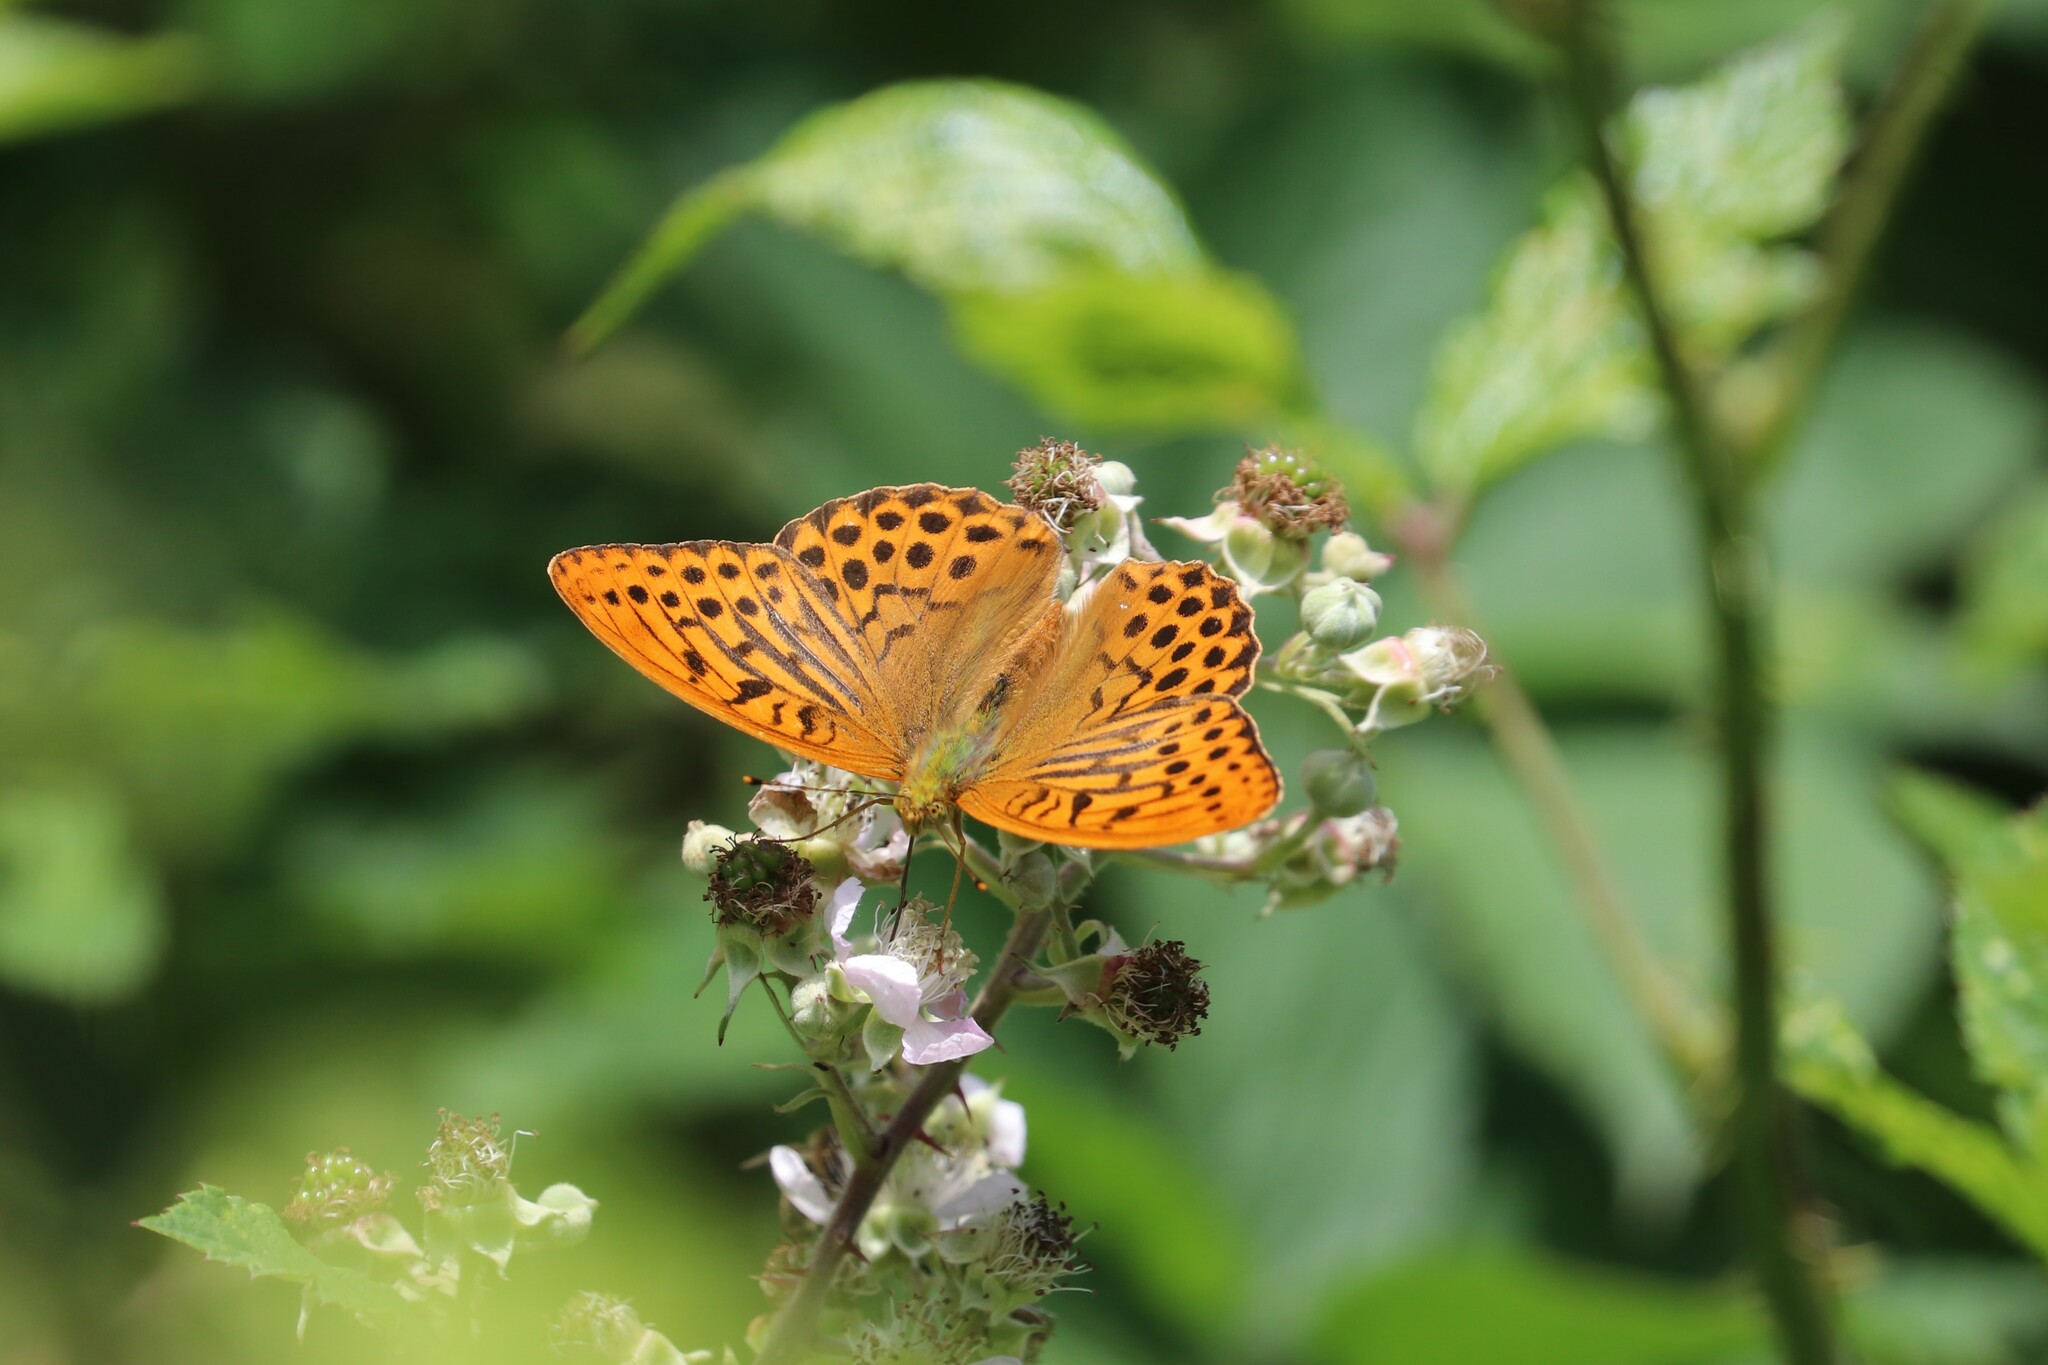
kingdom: Animalia
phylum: Arthropoda
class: Insecta
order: Lepidoptera
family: Nymphalidae
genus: Argynnis
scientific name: Argynnis paphia
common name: Silver-washed fritillary
